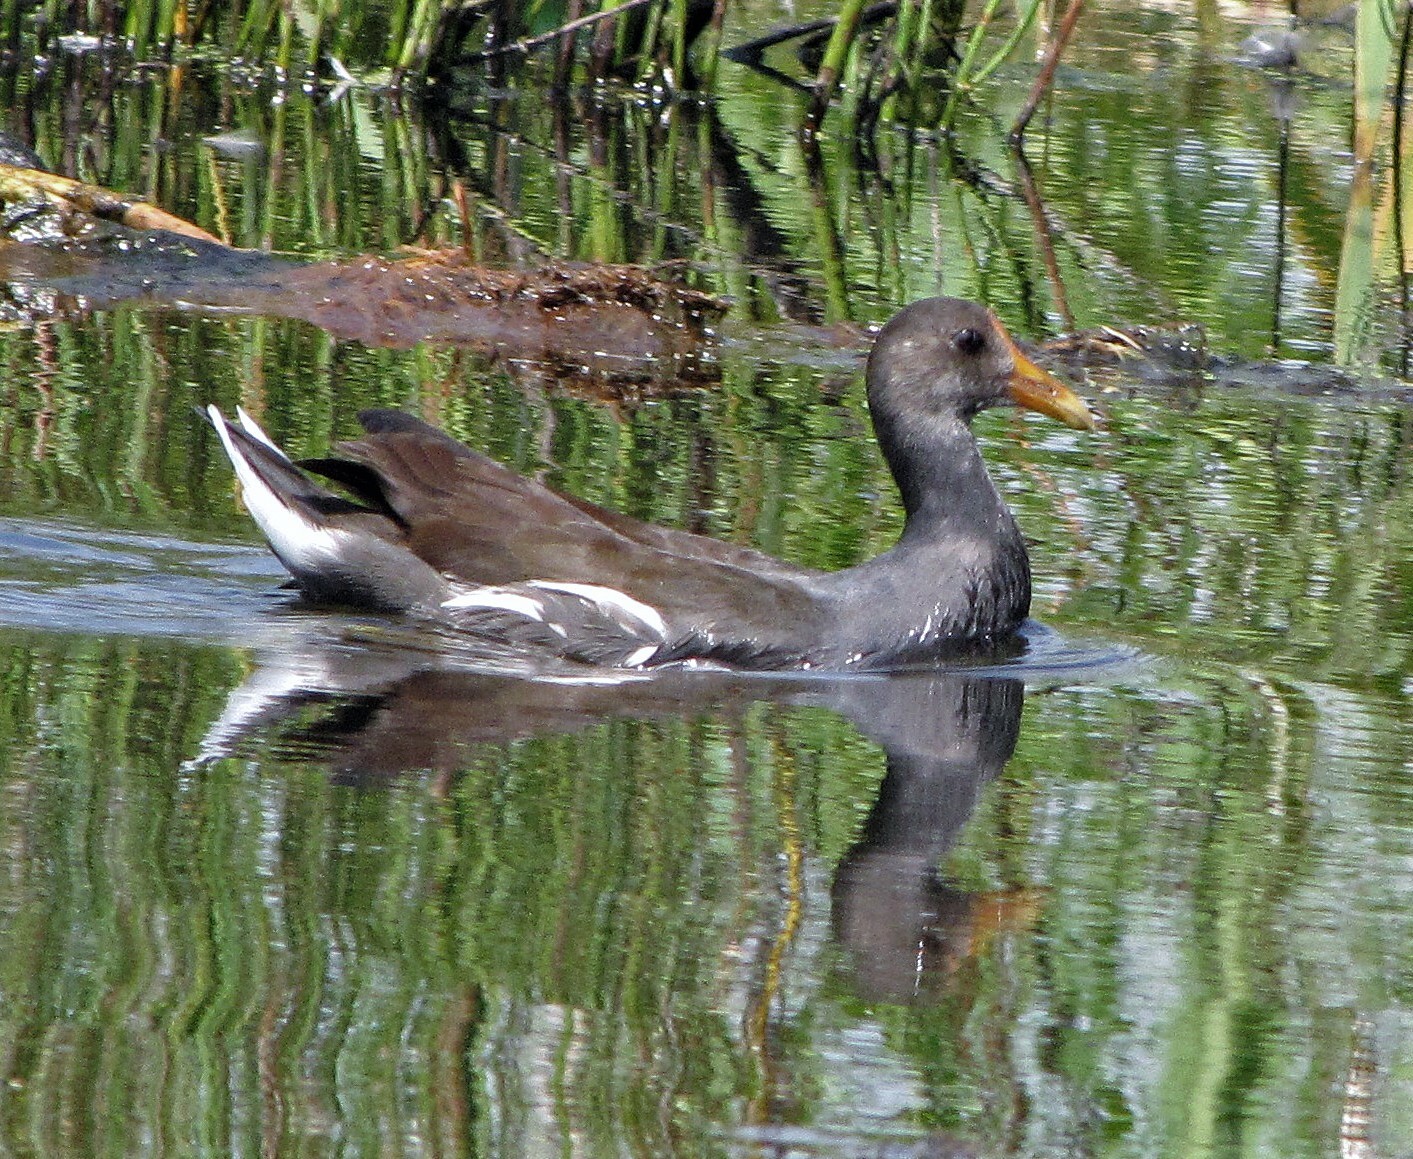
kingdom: Animalia
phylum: Chordata
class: Aves
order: Gruiformes
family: Rallidae
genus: Fulica
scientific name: Fulica rufifrons
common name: Red-fronted coot
